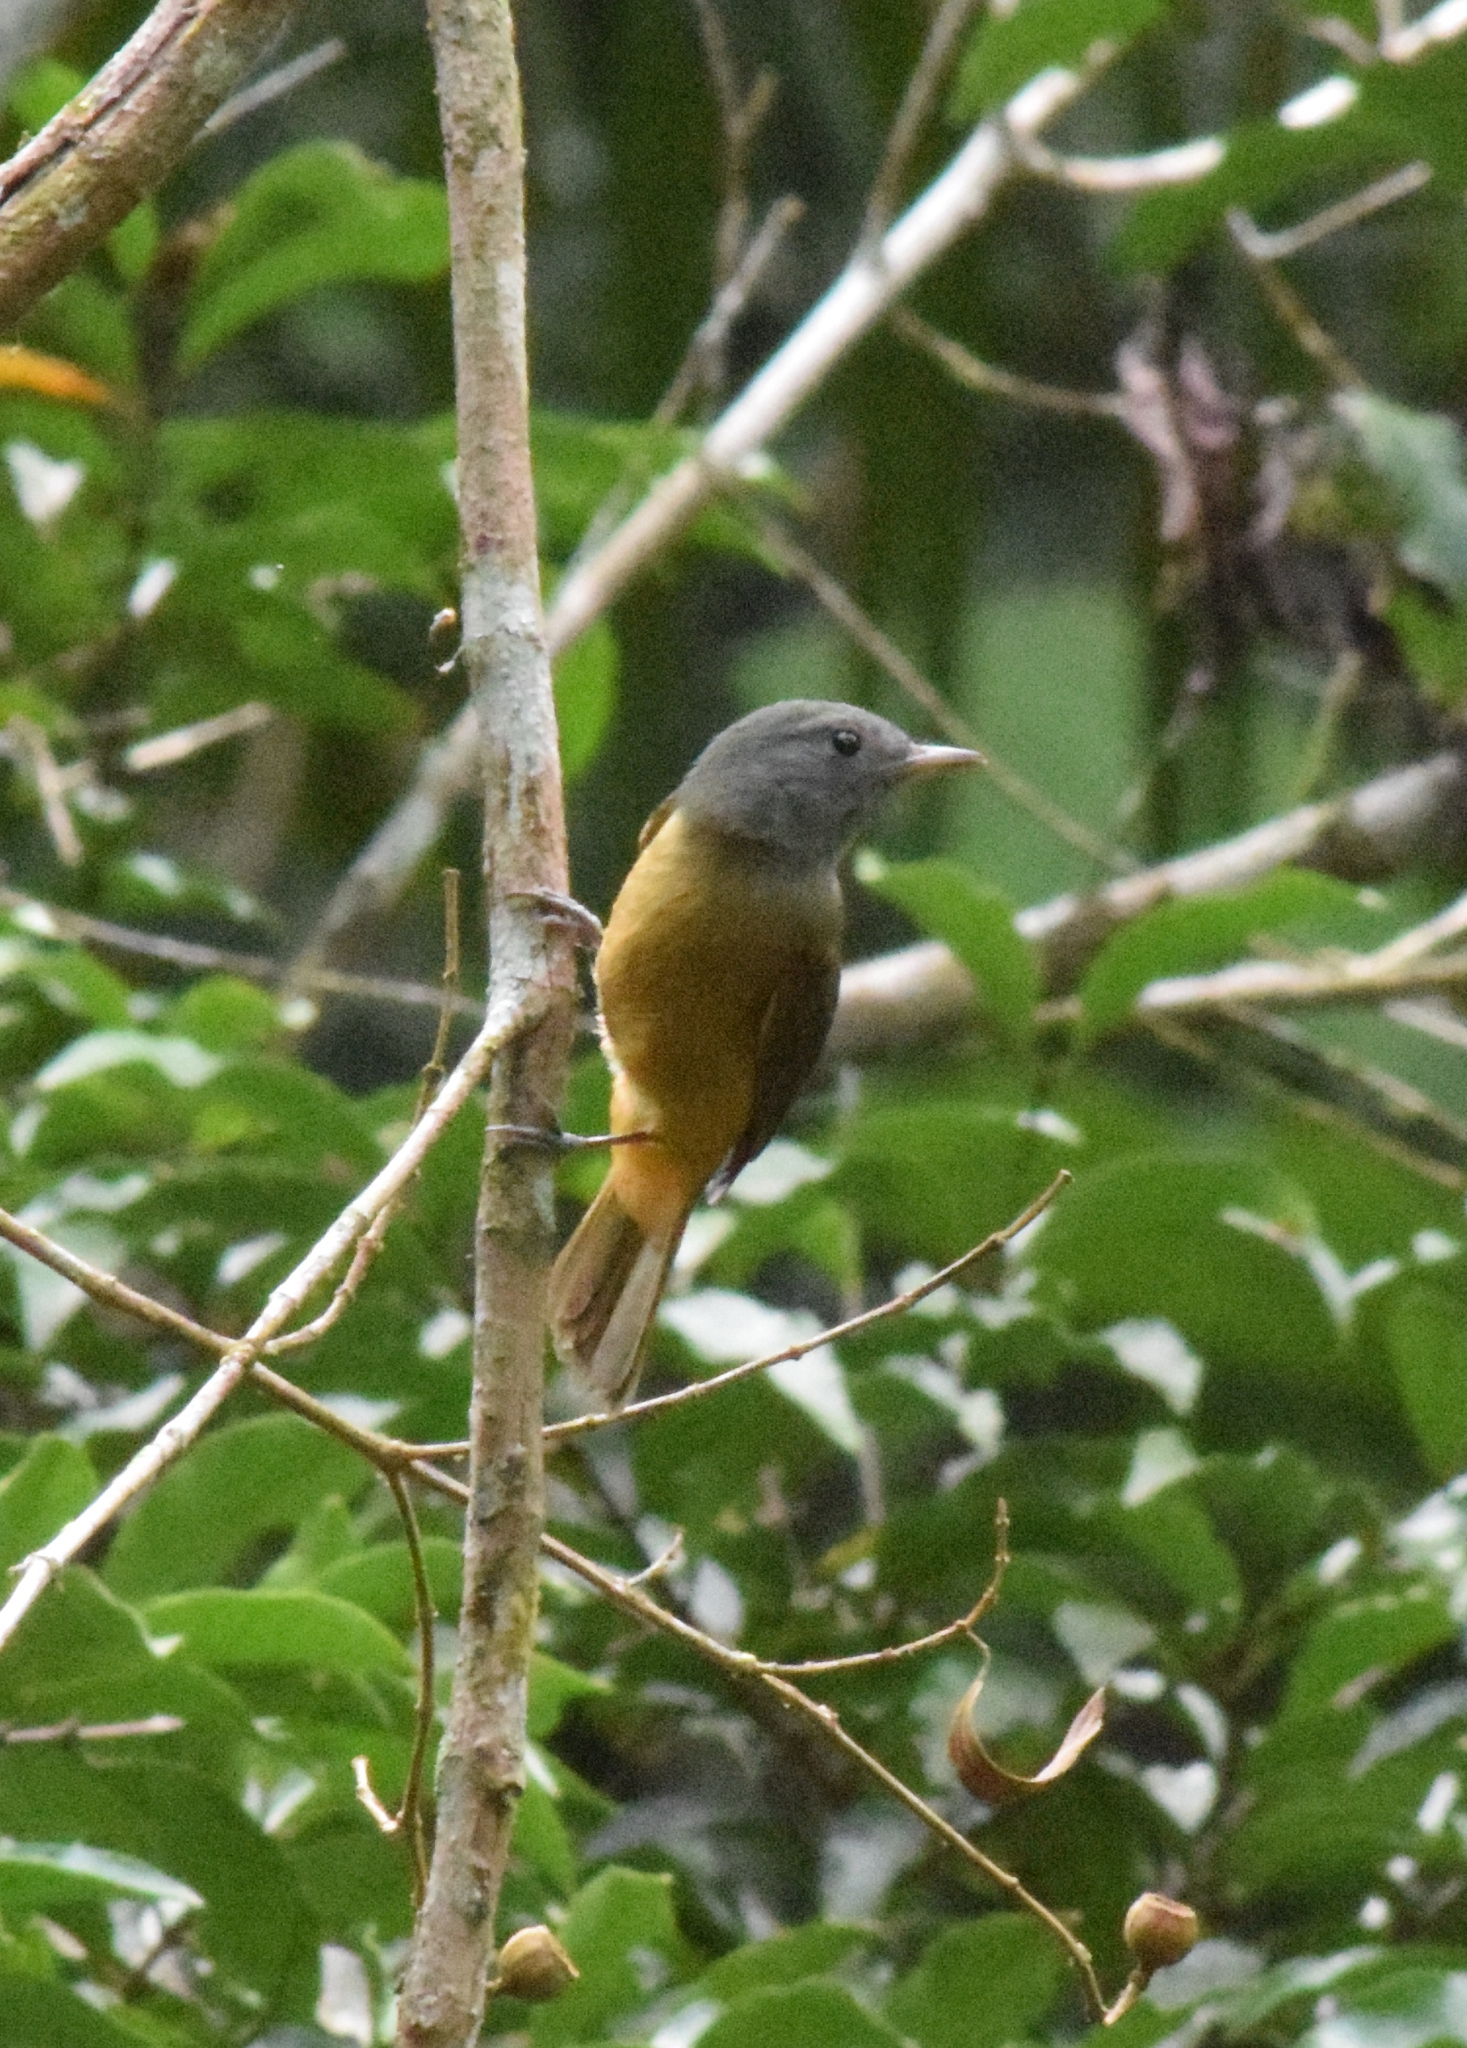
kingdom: Animalia
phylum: Chordata
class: Aves
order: Passeriformes
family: Tyrannidae
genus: Mionectes
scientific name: Mionectes rufiventris
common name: Grey-hooded flycatcher
